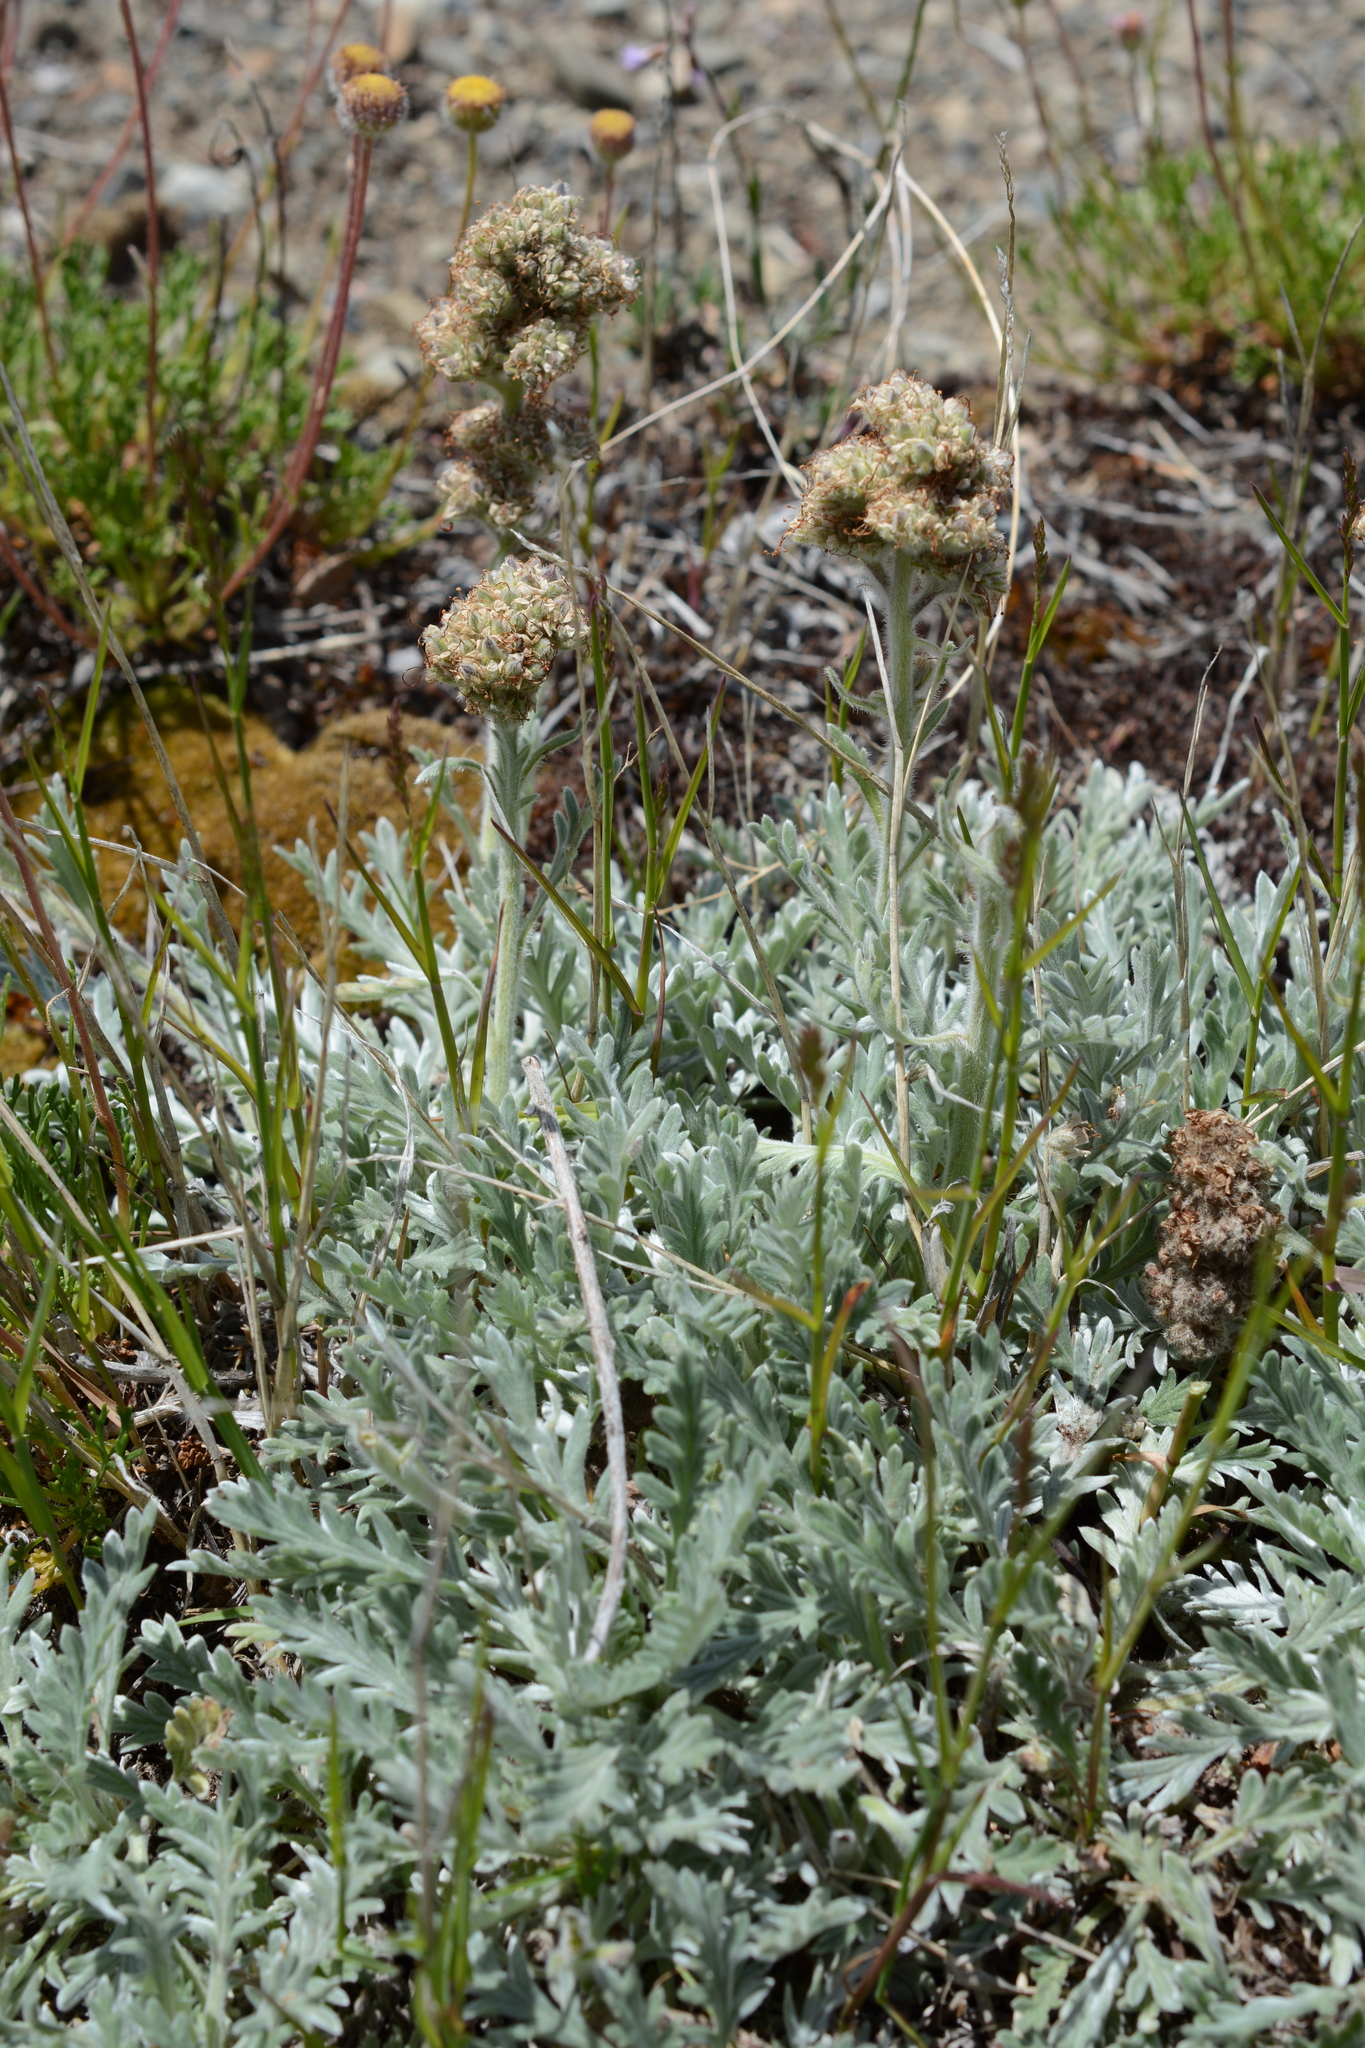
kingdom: Plantae
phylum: Tracheophyta
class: Magnoliopsida
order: Boraginales
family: Hydrophyllaceae
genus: Phacelia
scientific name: Phacelia sericea
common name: Silky phacelia
